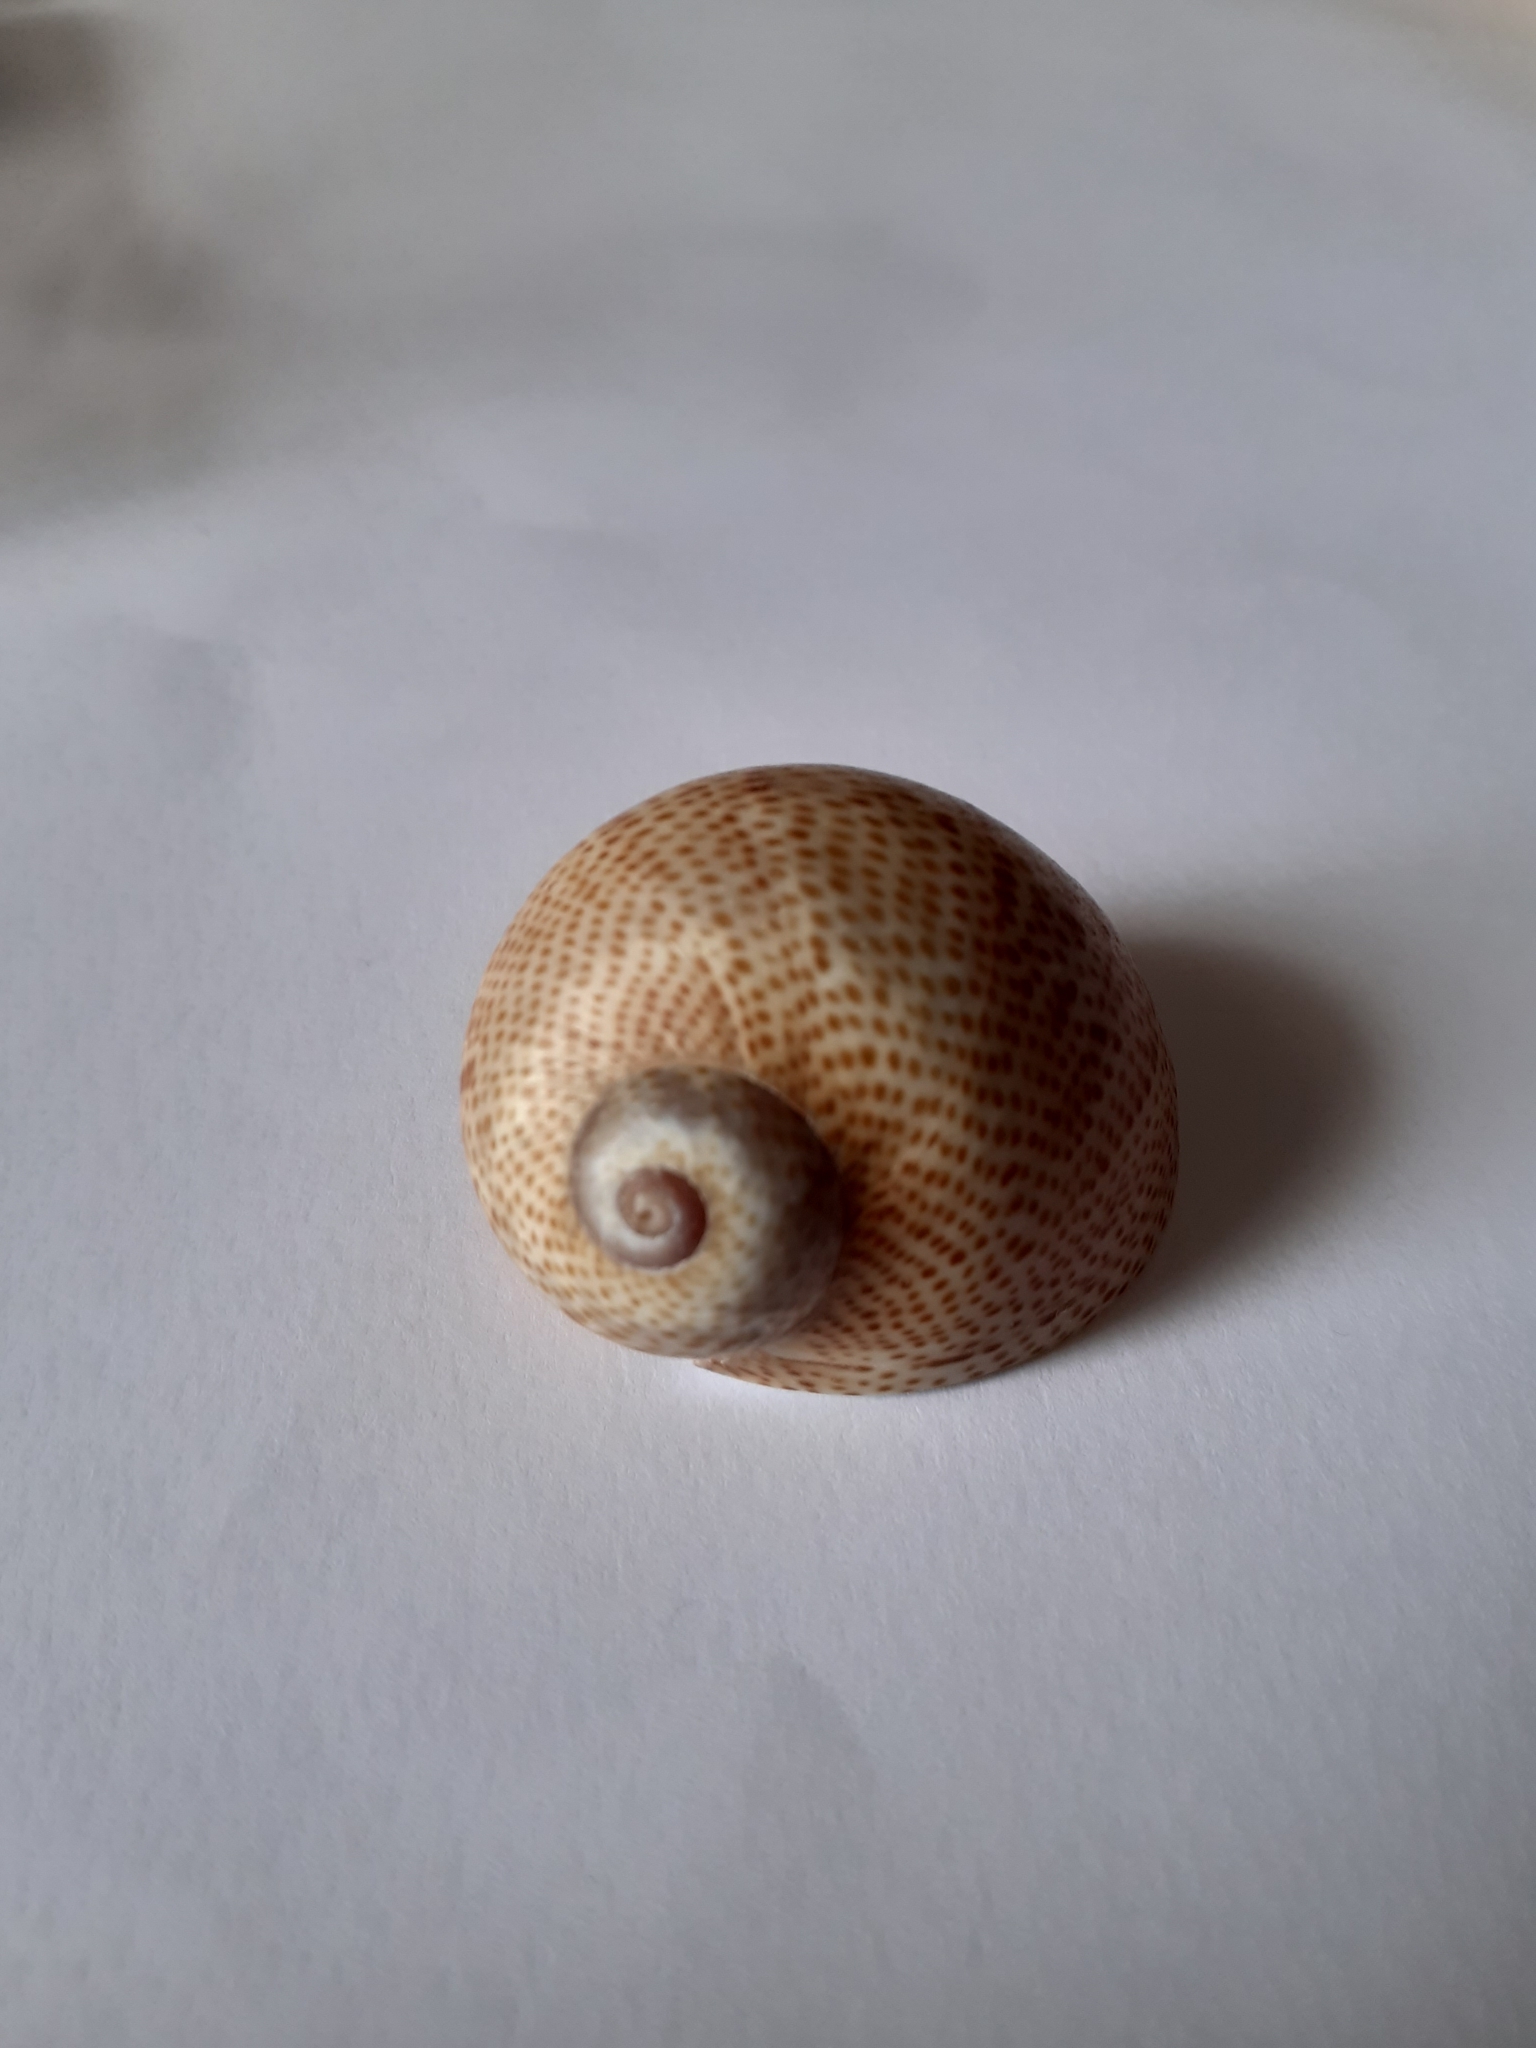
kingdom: Animalia
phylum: Mollusca
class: Gastropoda
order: Littorinimorpha
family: Naticidae
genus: Naticarius
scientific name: Naticarius stercusmuscarum
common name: Fly-speck moonsnail
